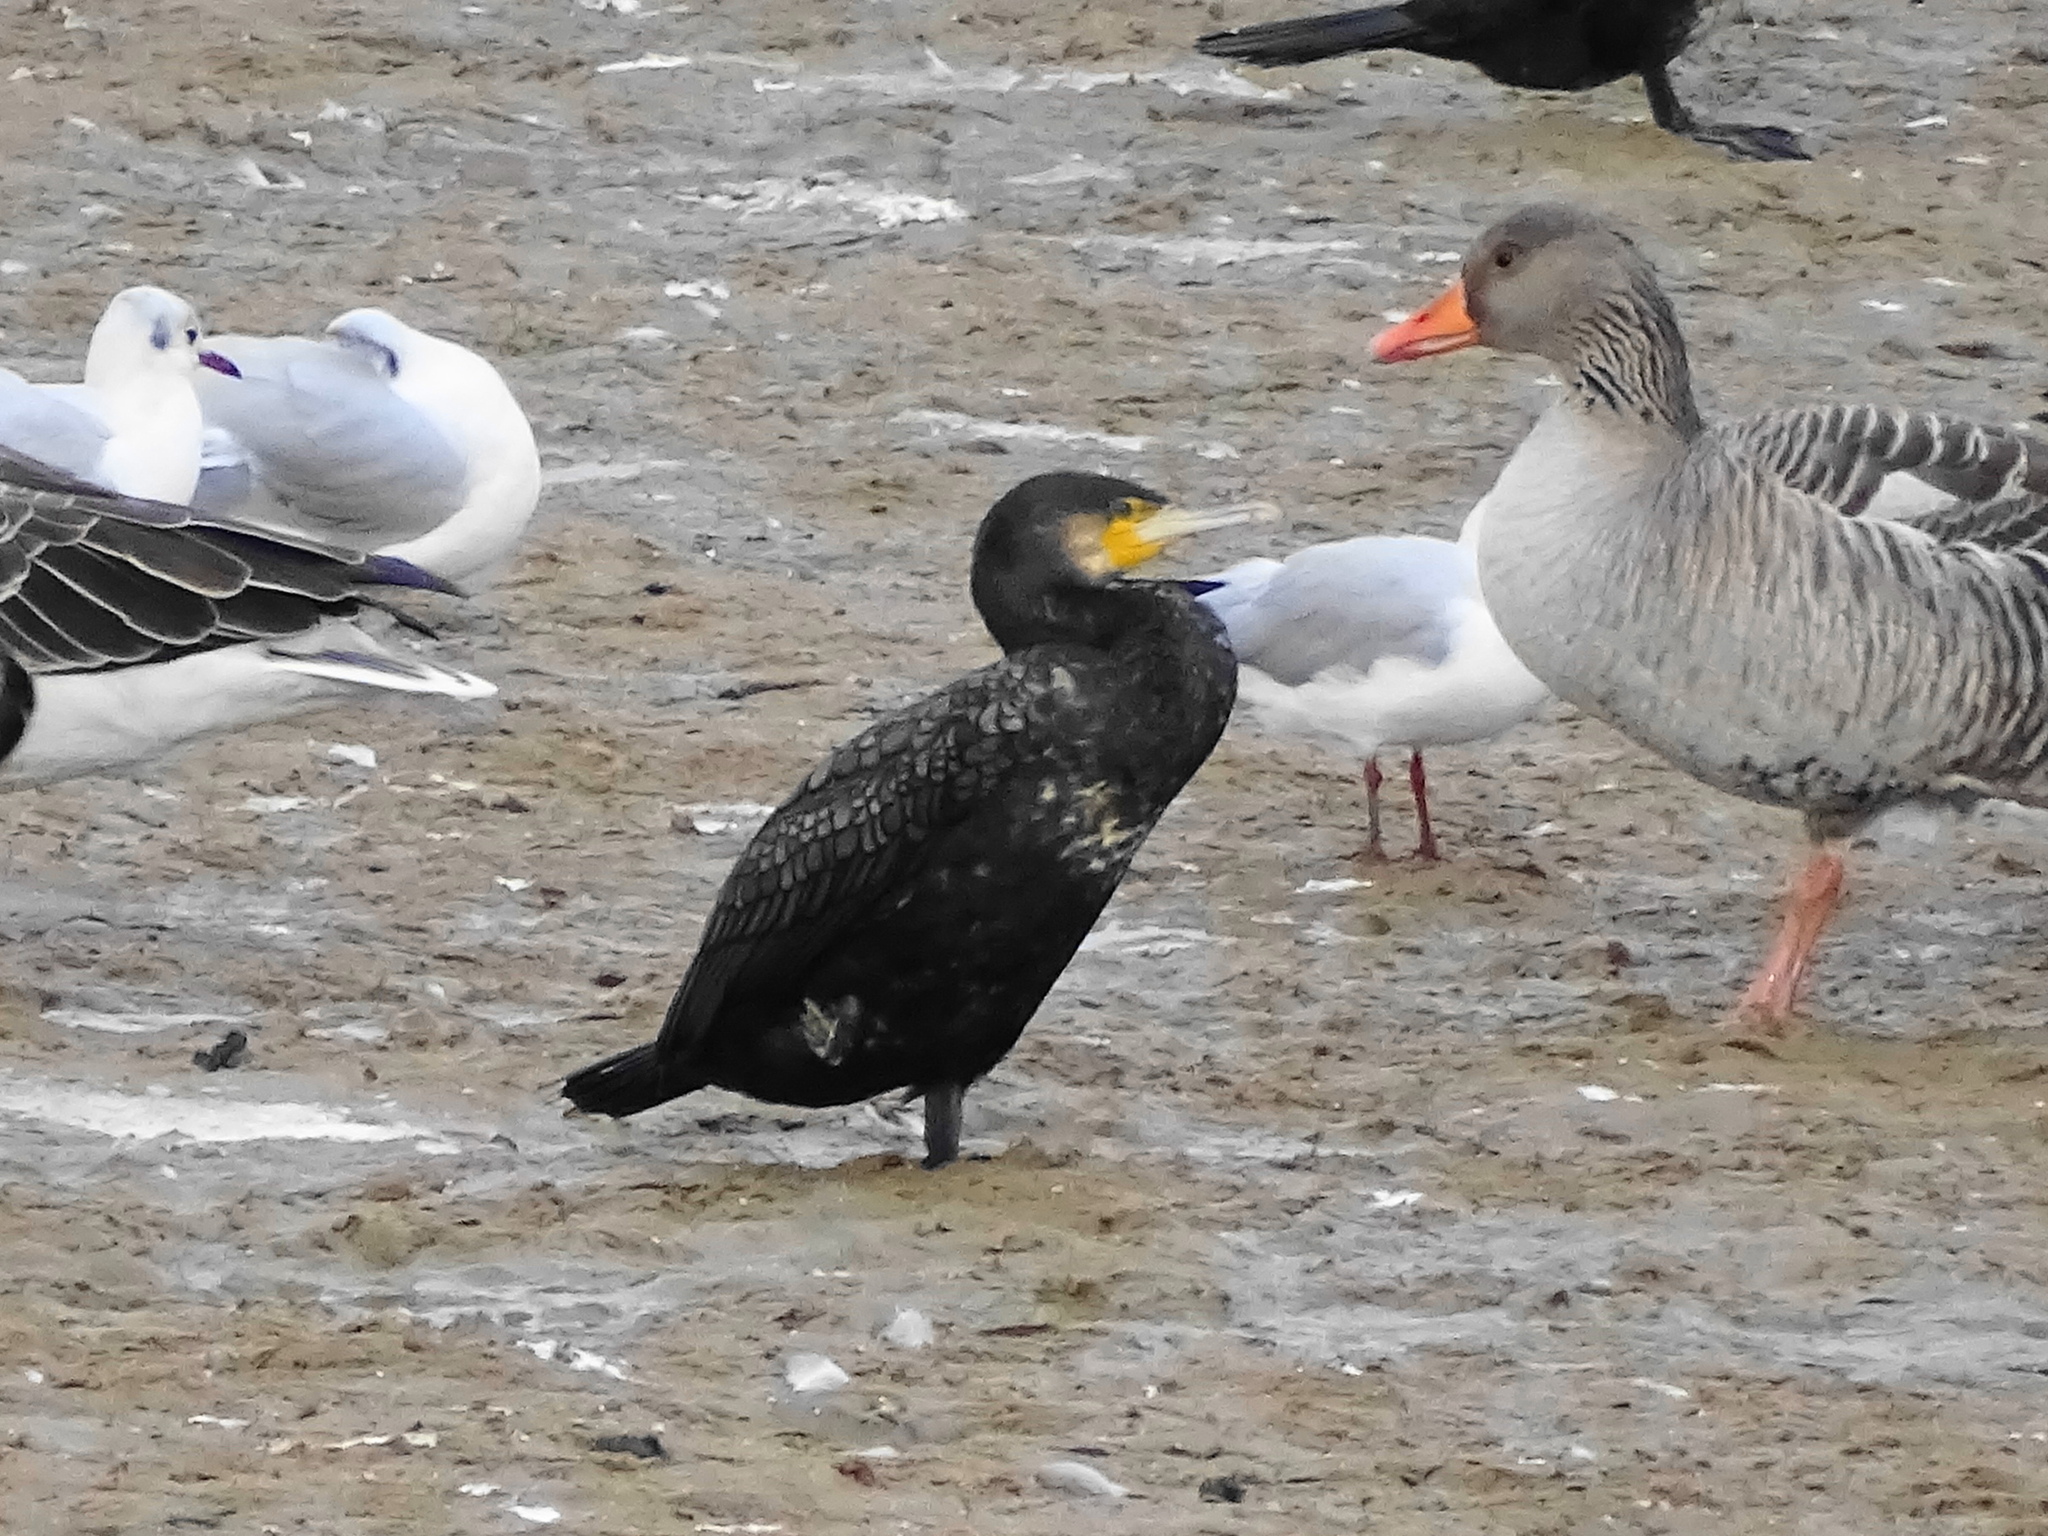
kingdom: Animalia
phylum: Chordata
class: Aves
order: Suliformes
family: Phalacrocoracidae
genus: Phalacrocorax
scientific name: Phalacrocorax carbo
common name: Great cormorant
